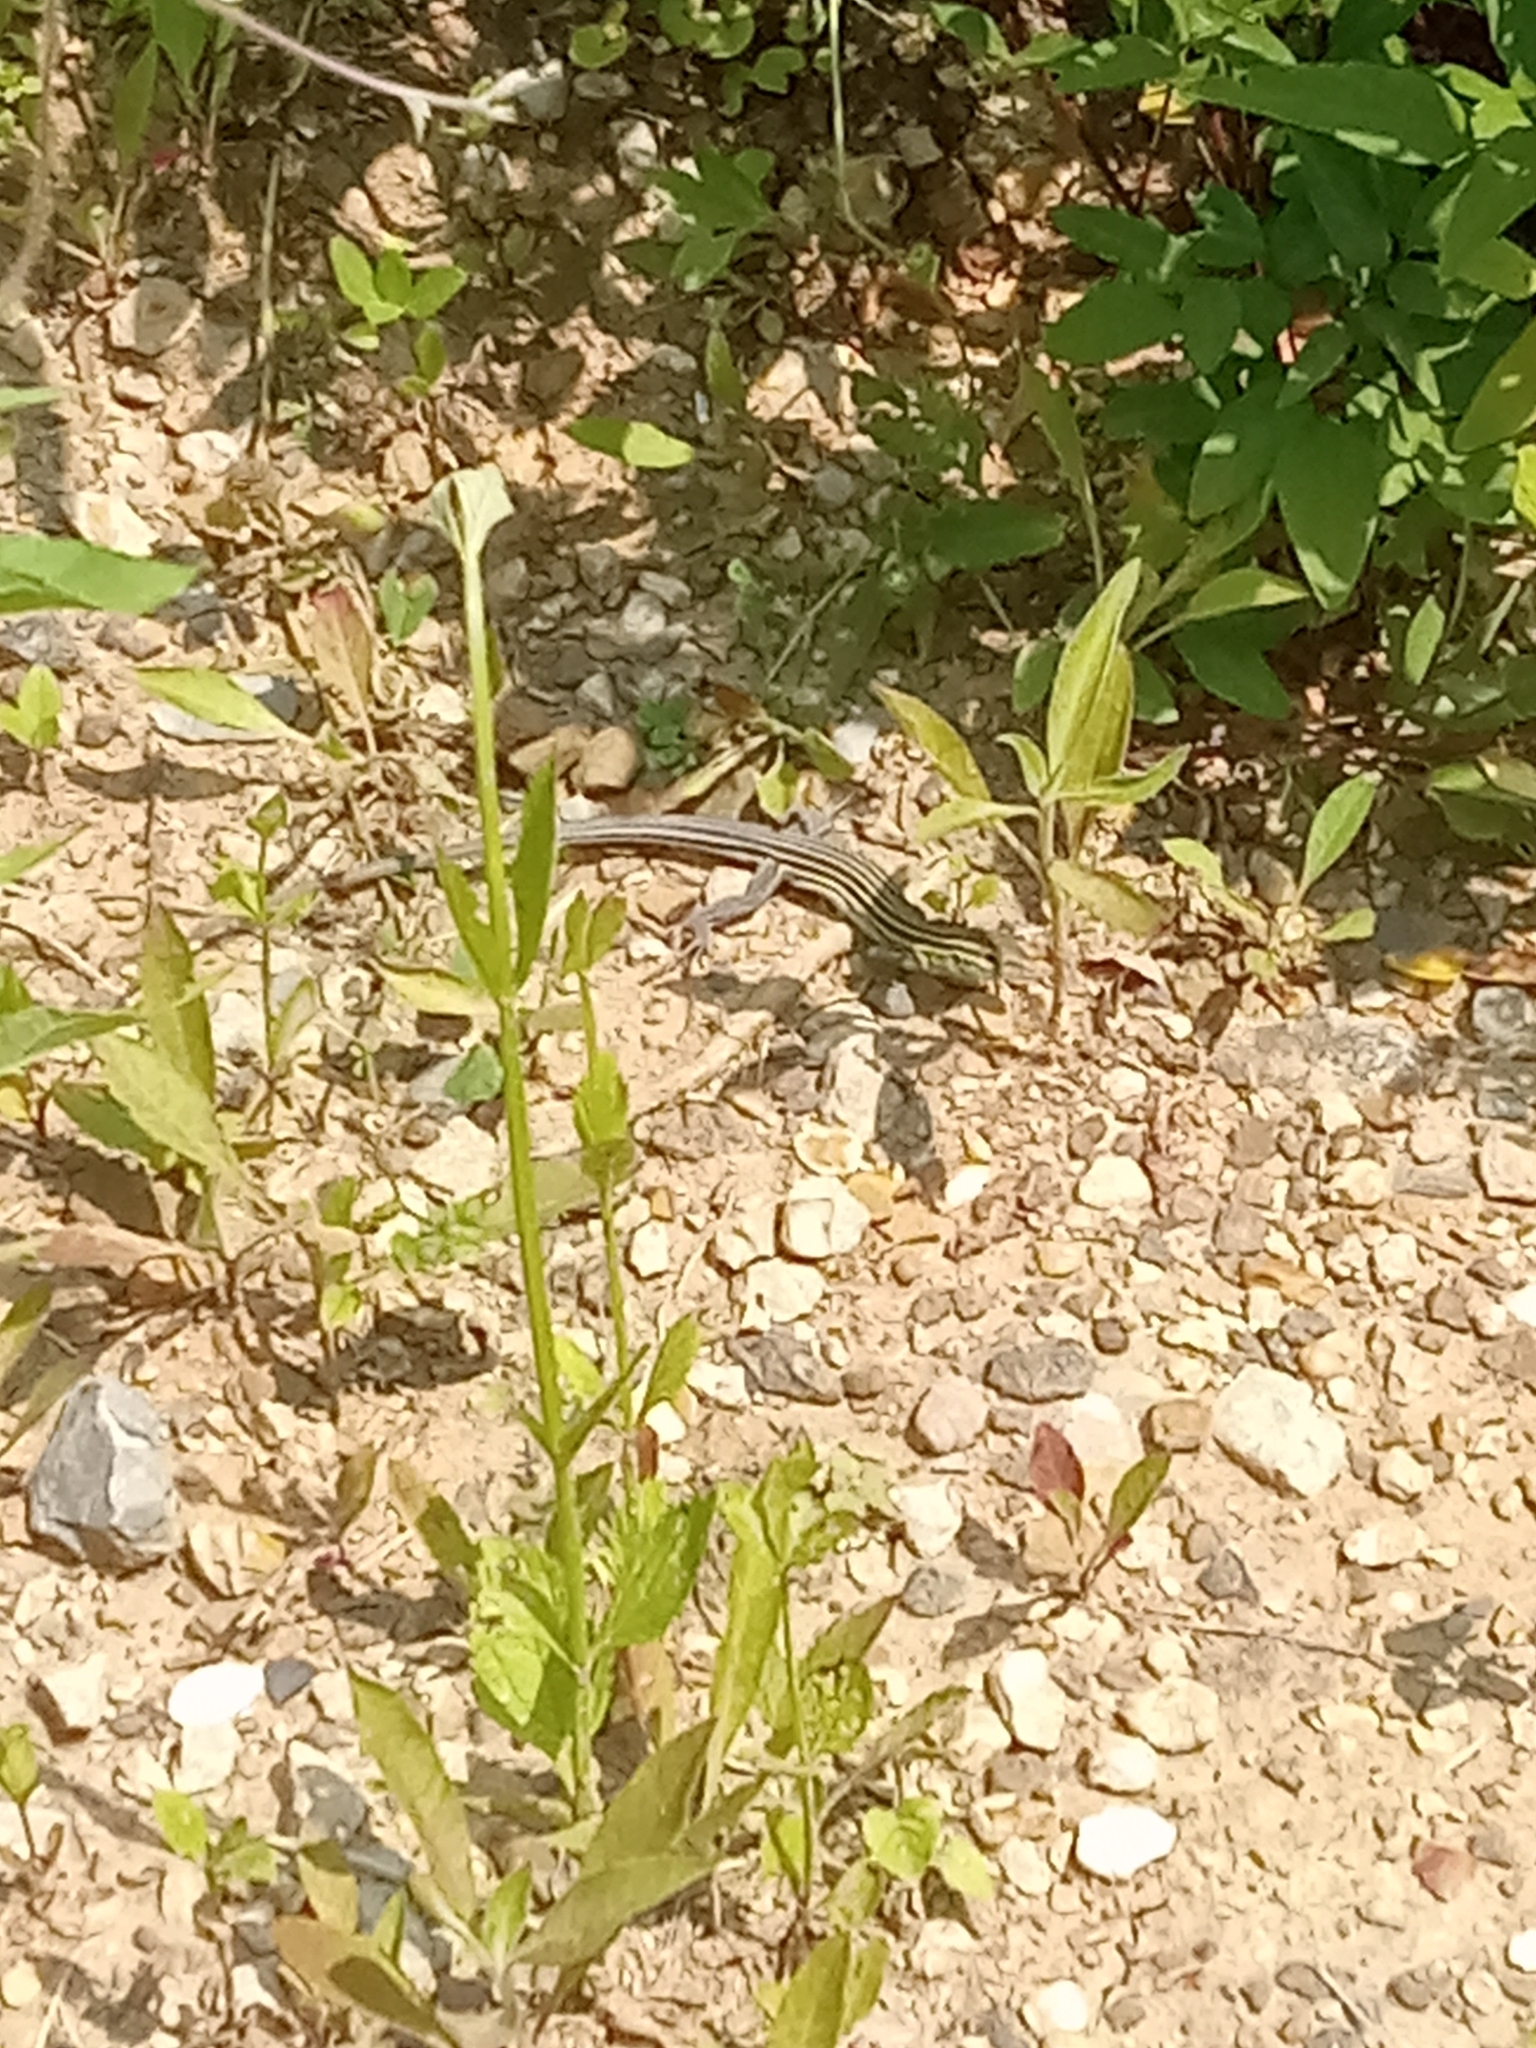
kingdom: Animalia
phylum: Chordata
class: Squamata
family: Teiidae
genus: Aspidoscelis
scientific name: Aspidoscelis sexlineatus
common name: Six-lined racerunner
